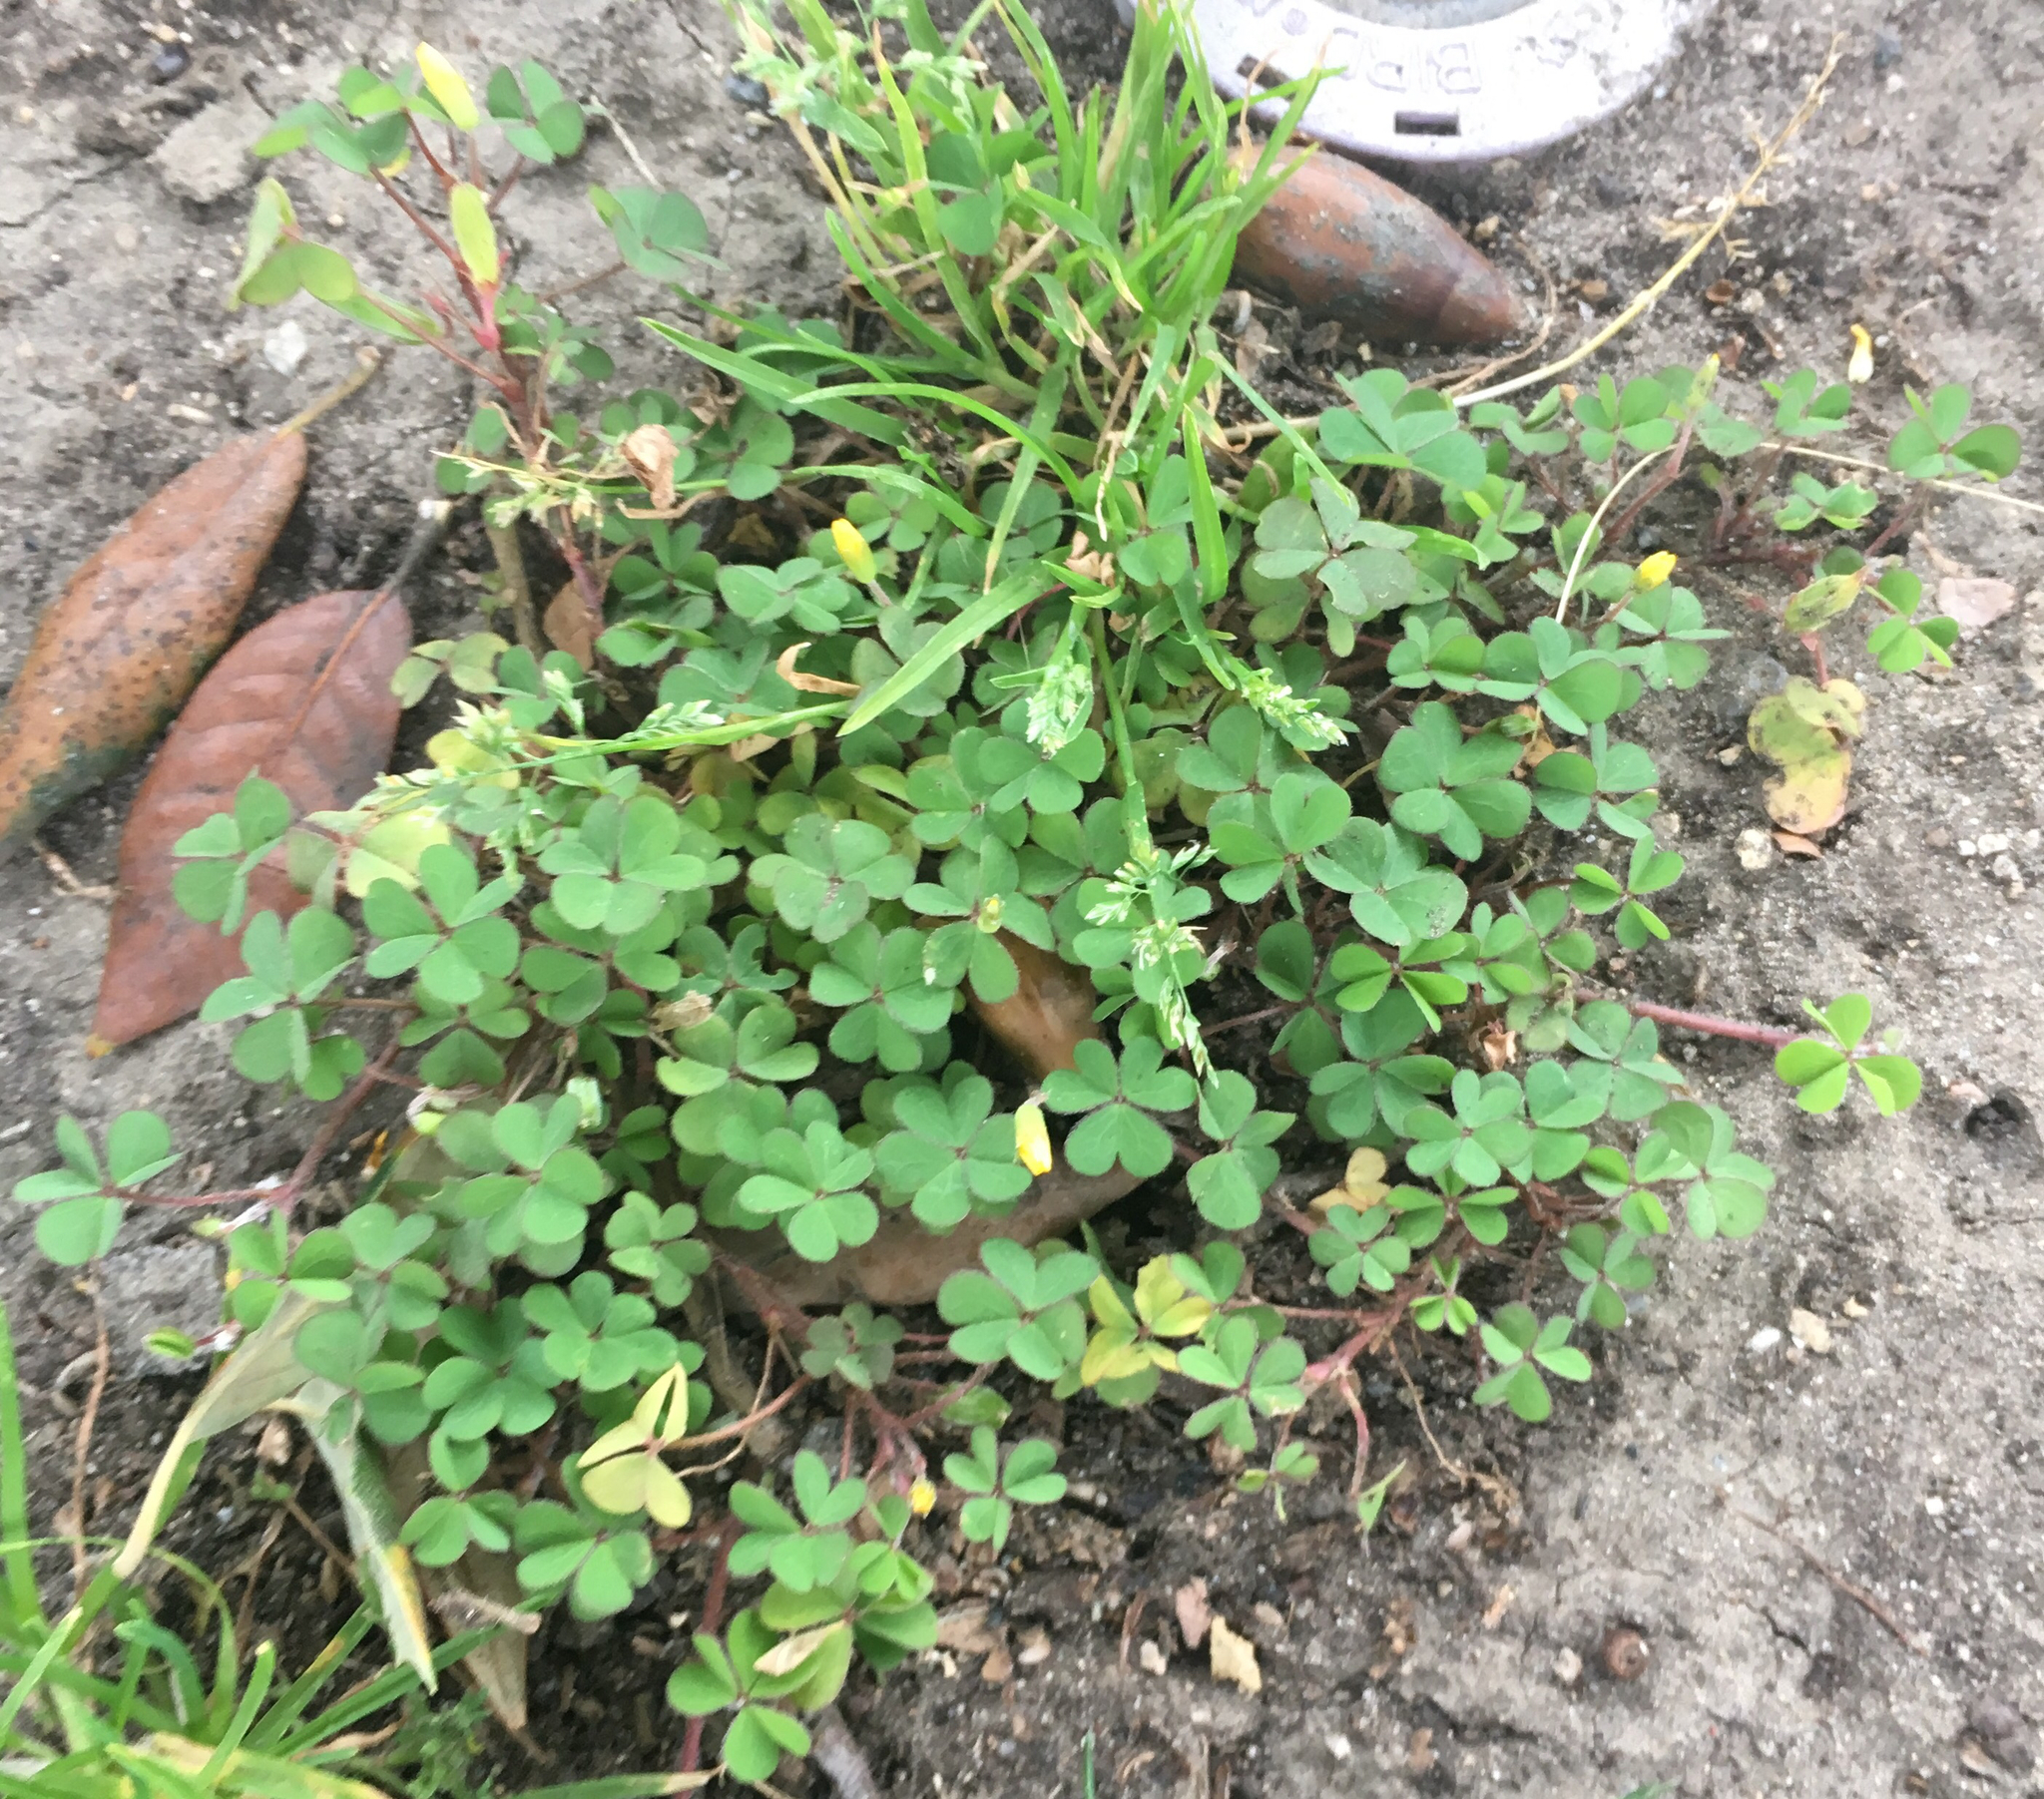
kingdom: Plantae
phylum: Tracheophyta
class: Magnoliopsida
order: Oxalidales
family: Oxalidaceae
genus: Oxalis
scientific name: Oxalis corniculata
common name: Procumbent yellow-sorrel
